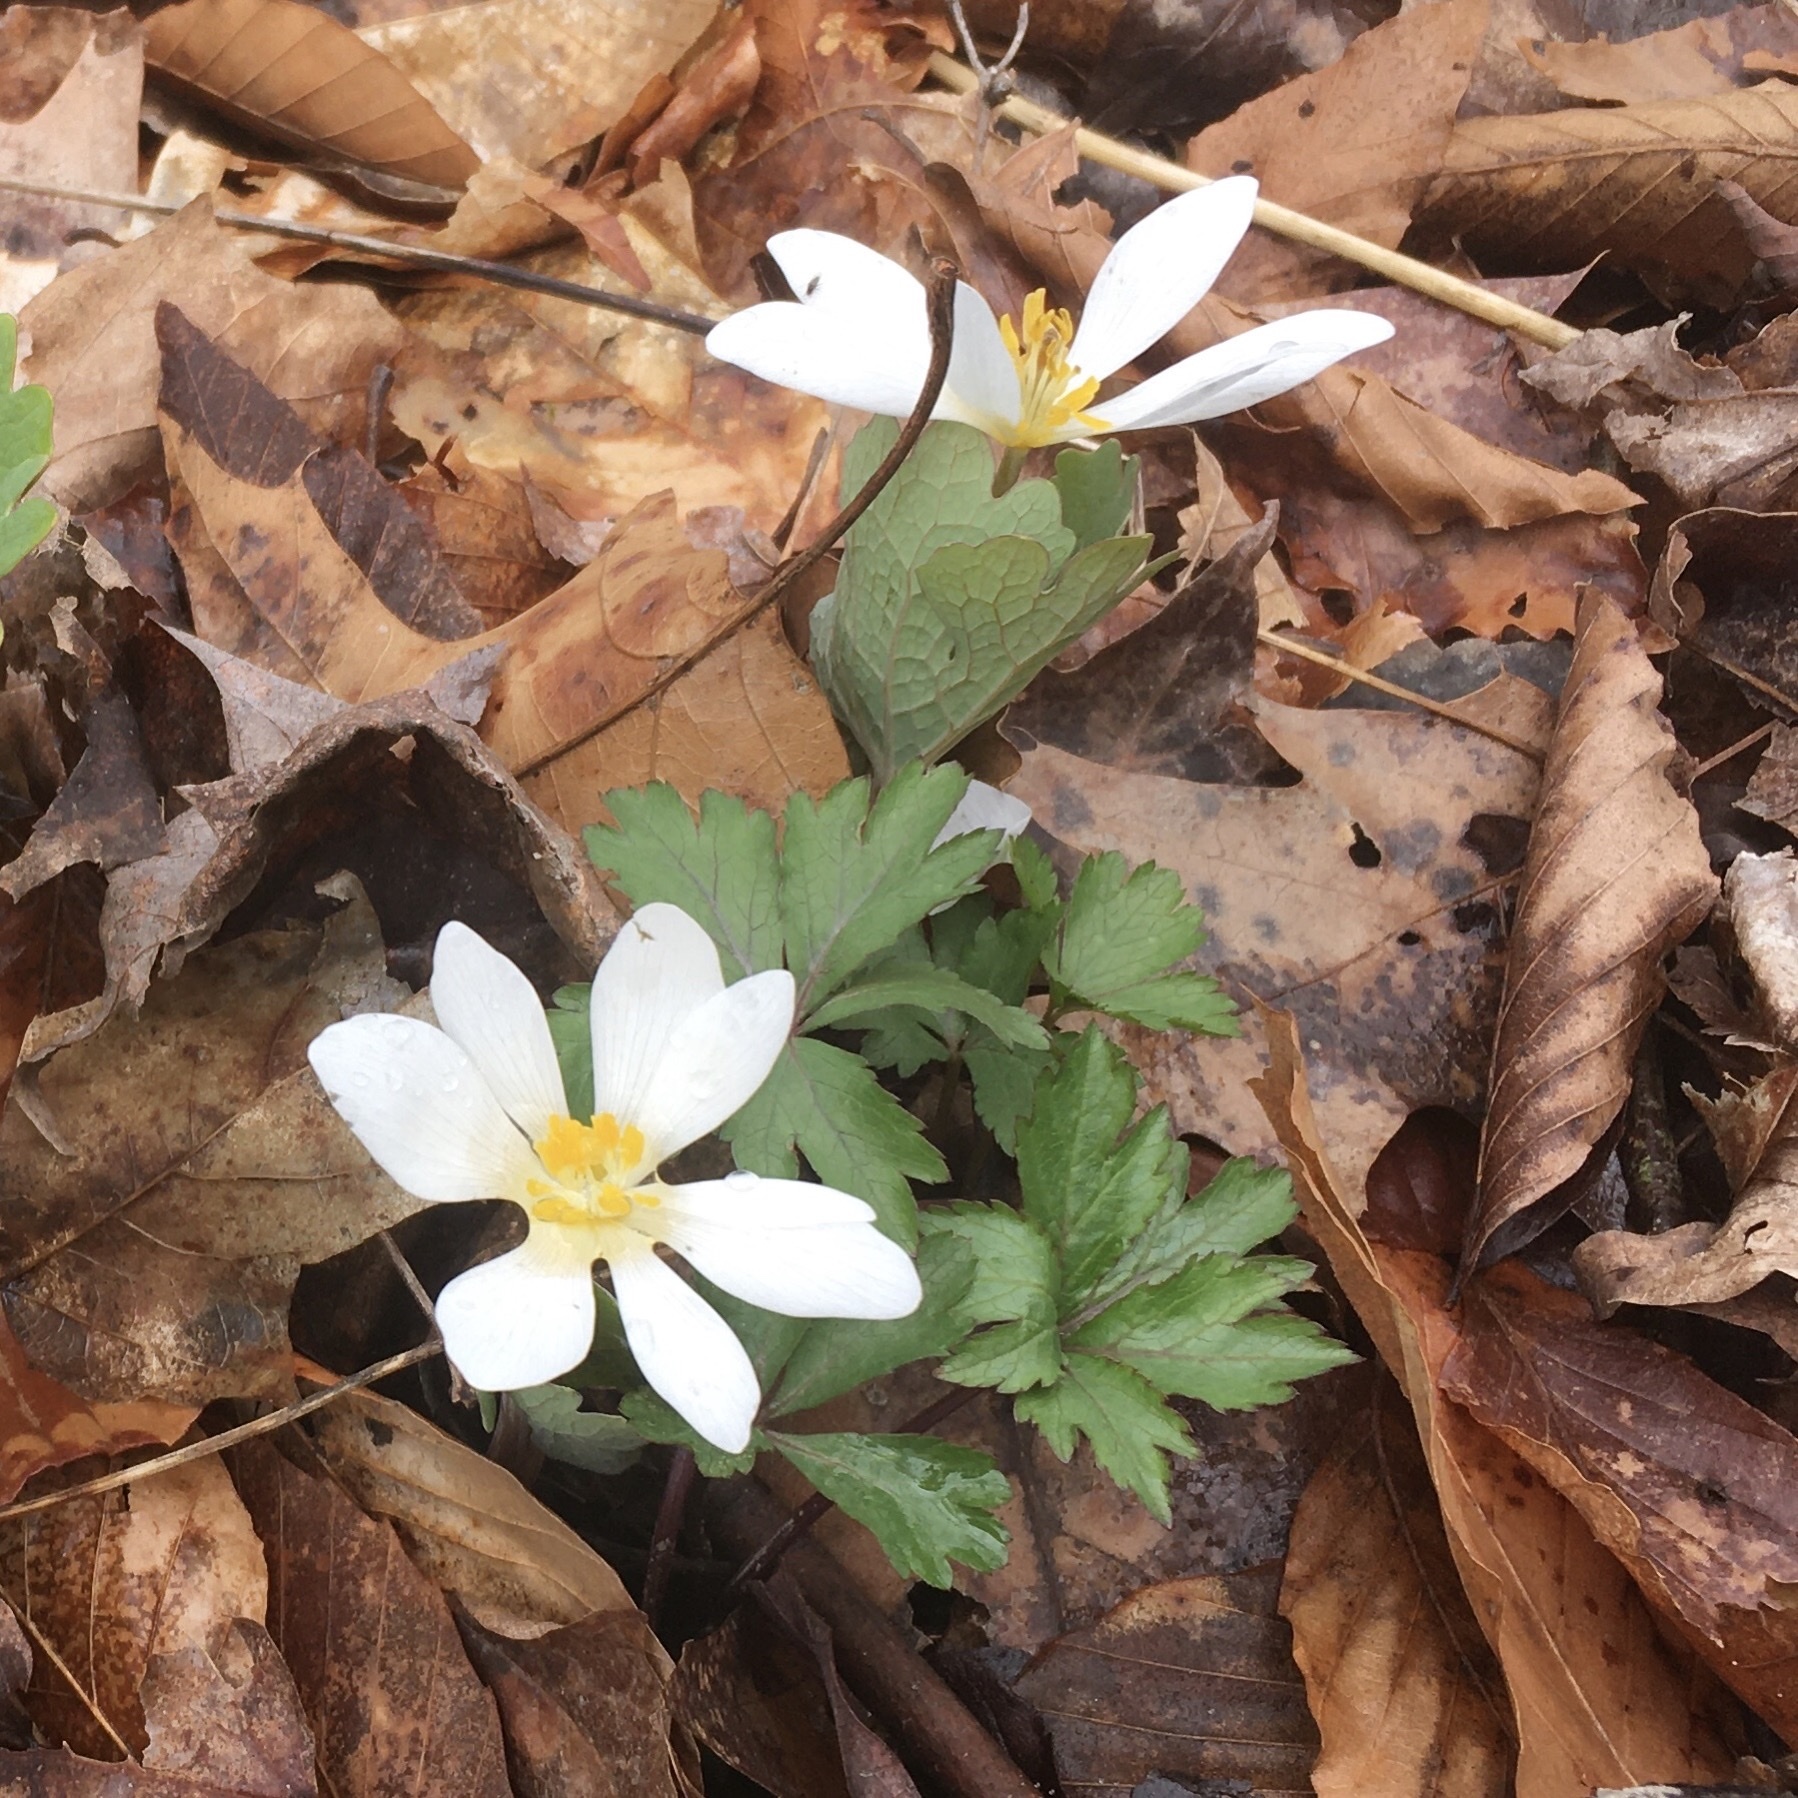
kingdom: Plantae
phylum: Tracheophyta
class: Magnoliopsida
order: Ranunculales
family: Papaveraceae
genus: Sanguinaria
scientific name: Sanguinaria canadensis
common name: Bloodroot
